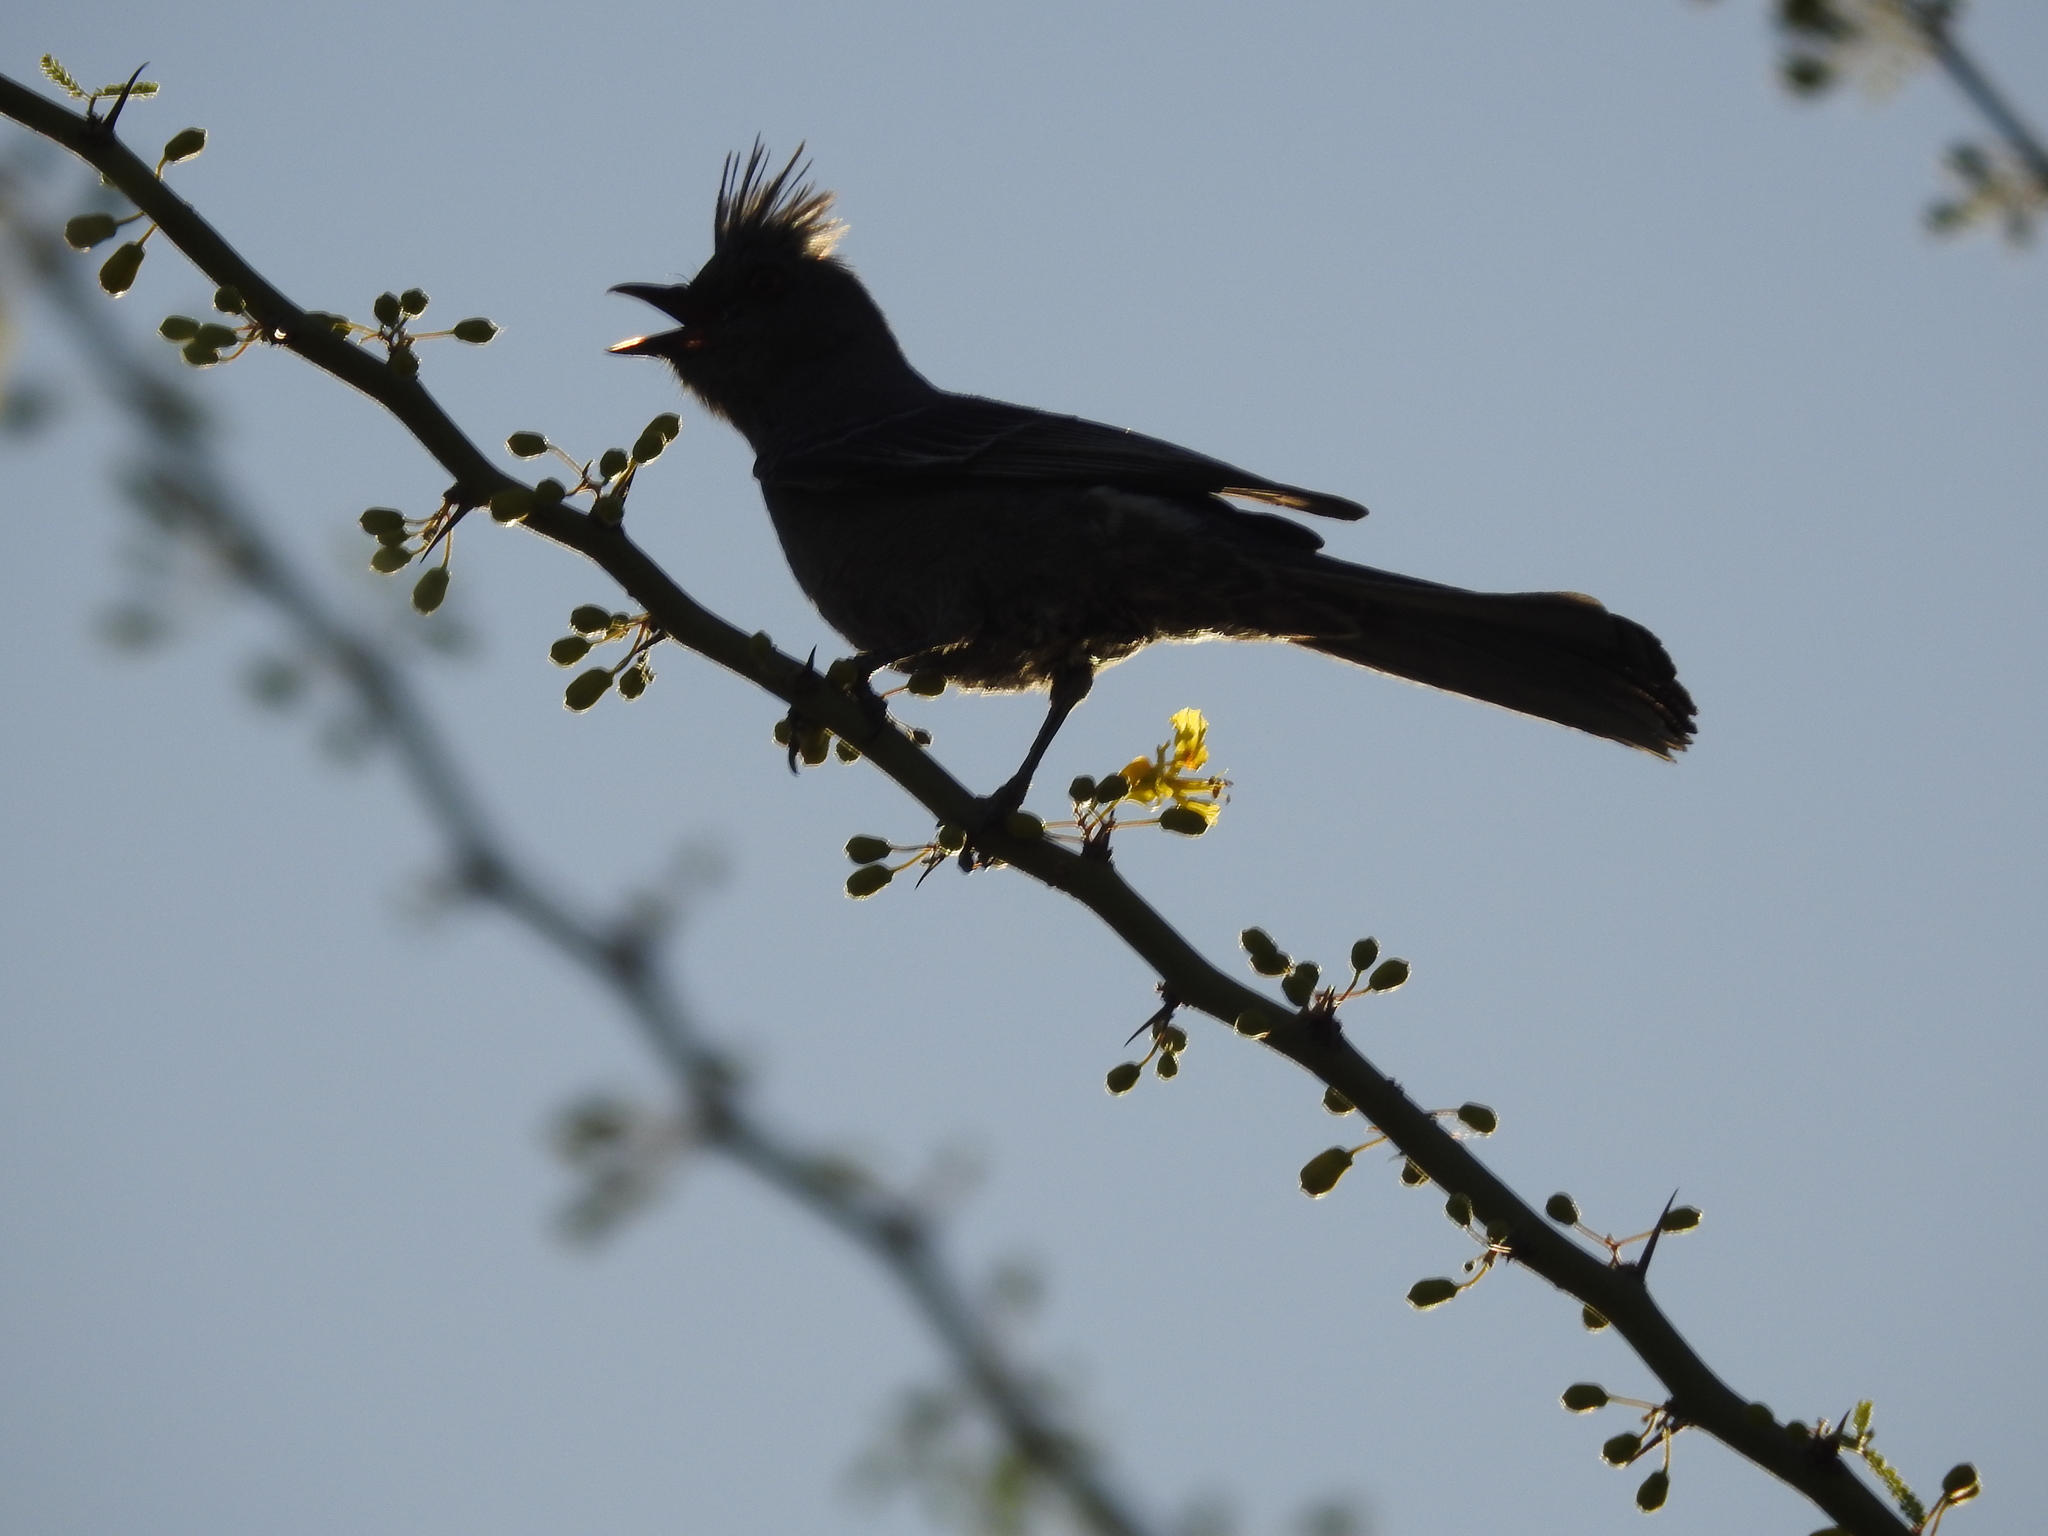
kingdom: Animalia
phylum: Chordata
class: Aves
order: Passeriformes
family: Ptilogonatidae
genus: Phainopepla
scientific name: Phainopepla nitens
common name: Phainopepla
